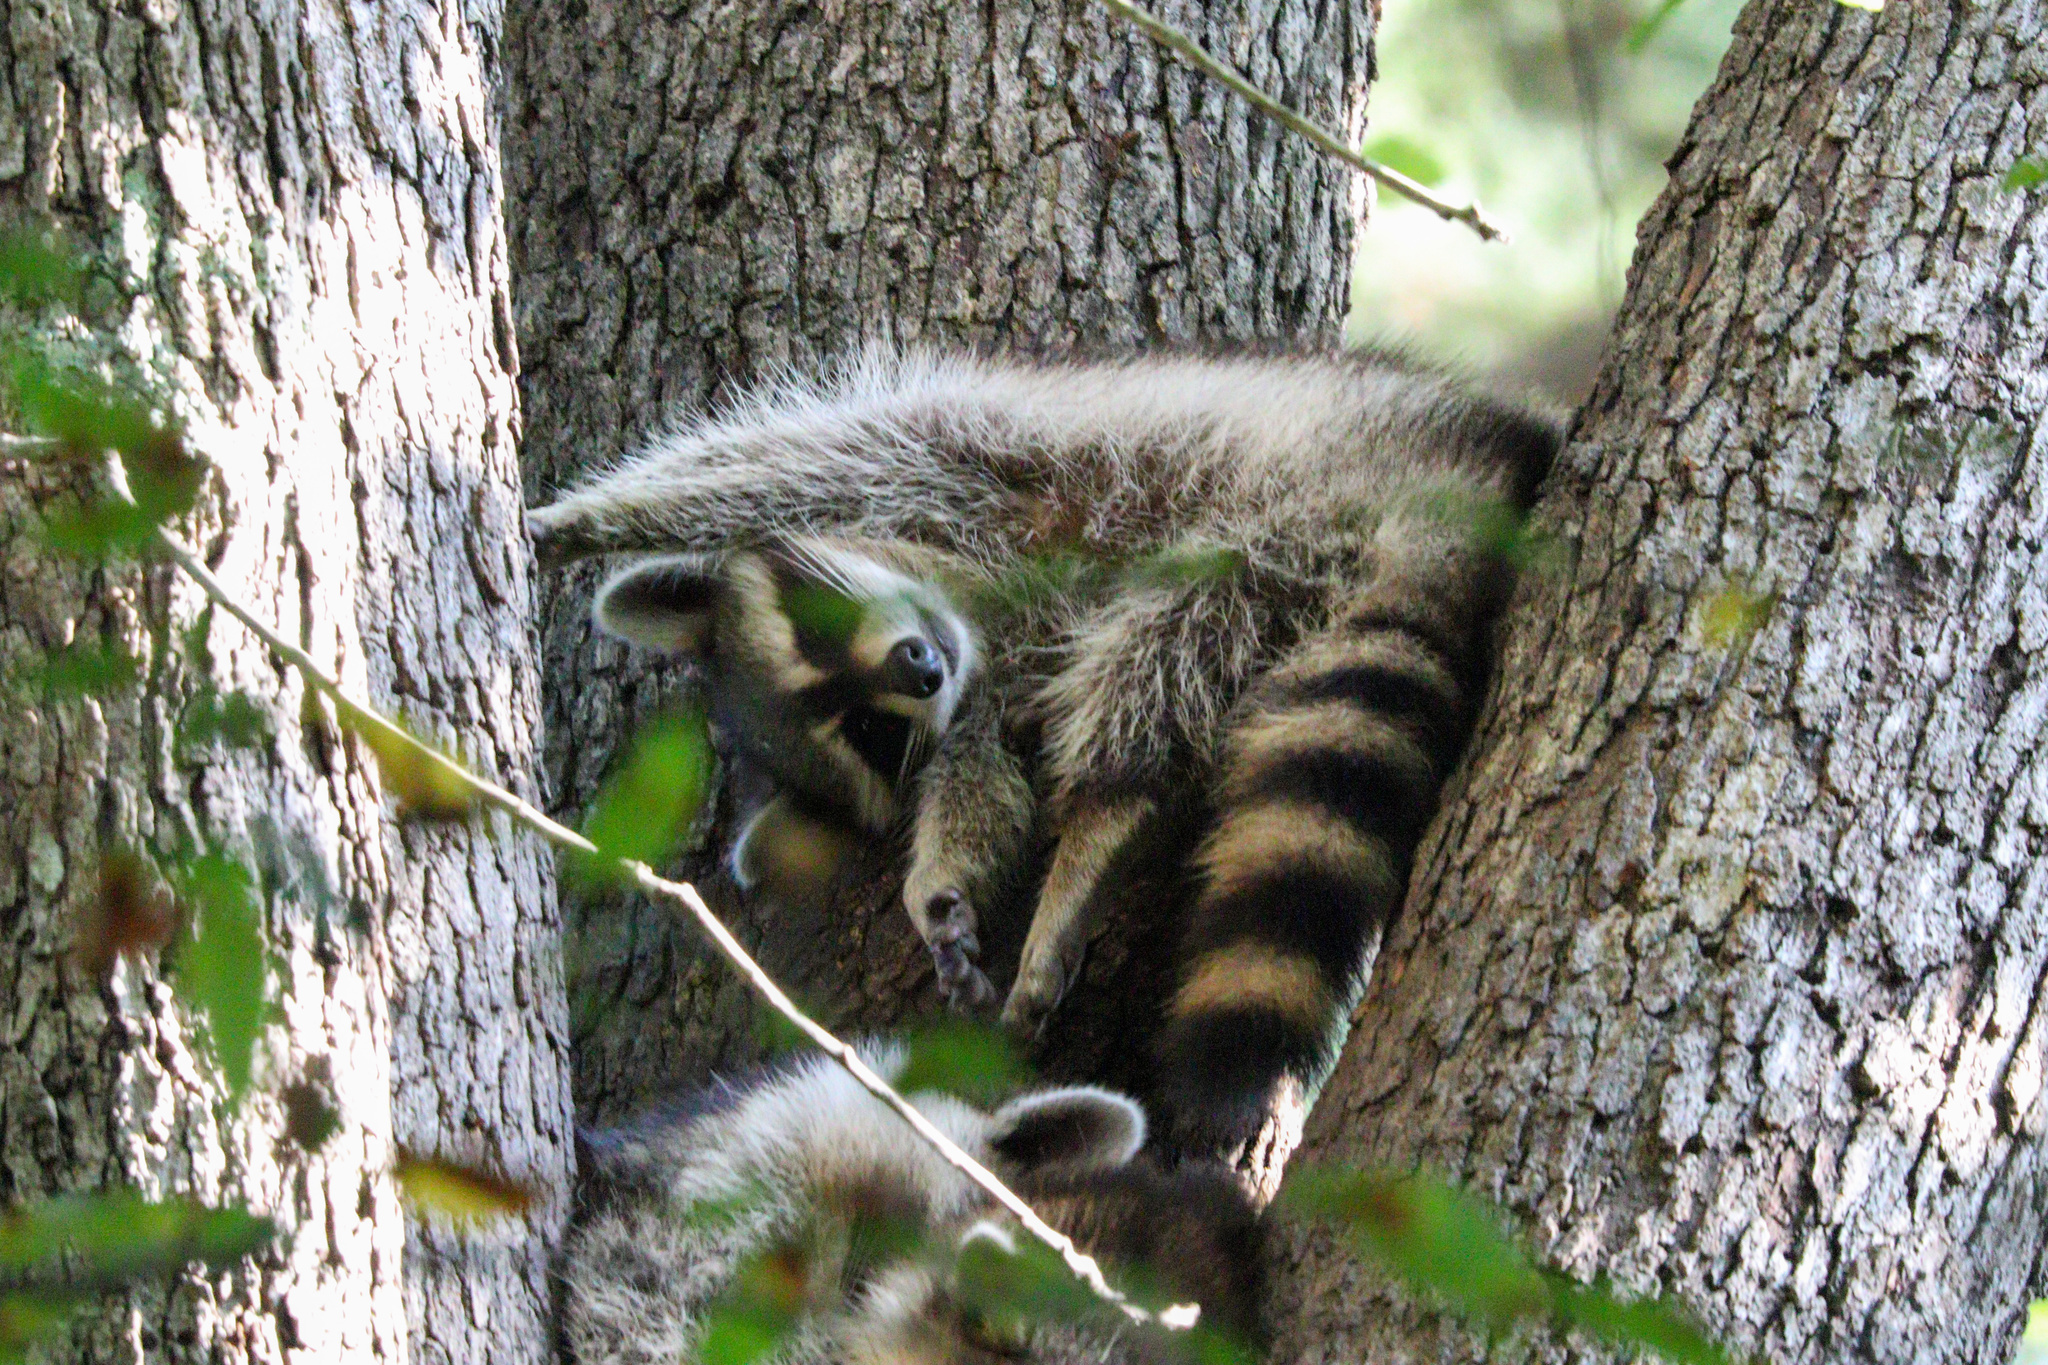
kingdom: Animalia
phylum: Chordata
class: Mammalia
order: Carnivora
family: Procyonidae
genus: Procyon
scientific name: Procyon lotor
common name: Raccoon
